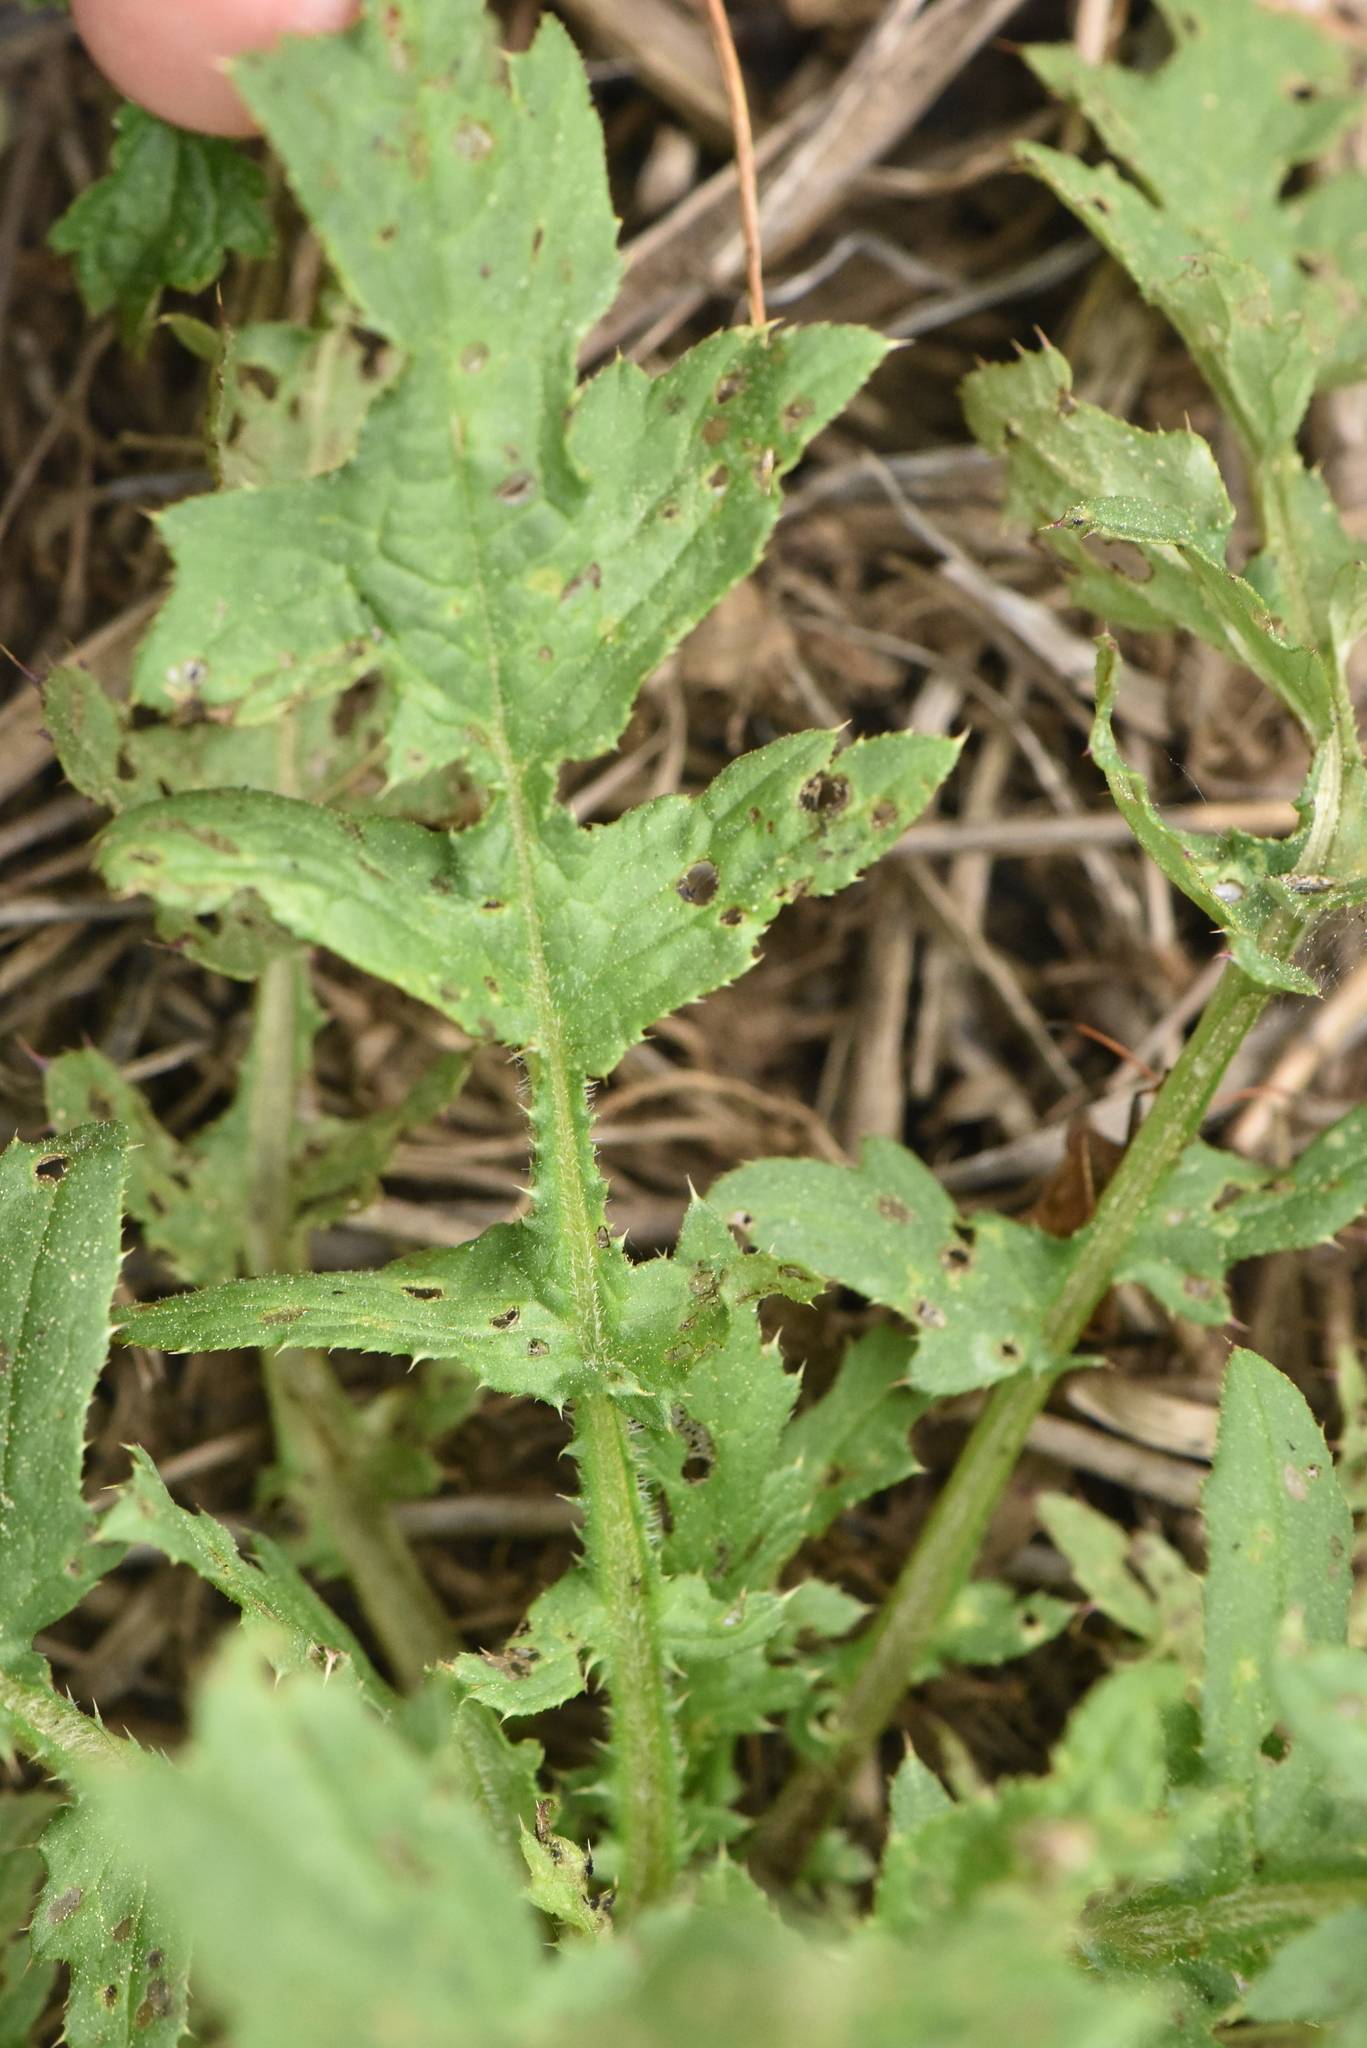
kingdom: Plantae
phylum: Tracheophyta
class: Magnoliopsida
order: Asterales
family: Asteraceae
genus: Carduus
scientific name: Carduus crispus
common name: Welted thistle
